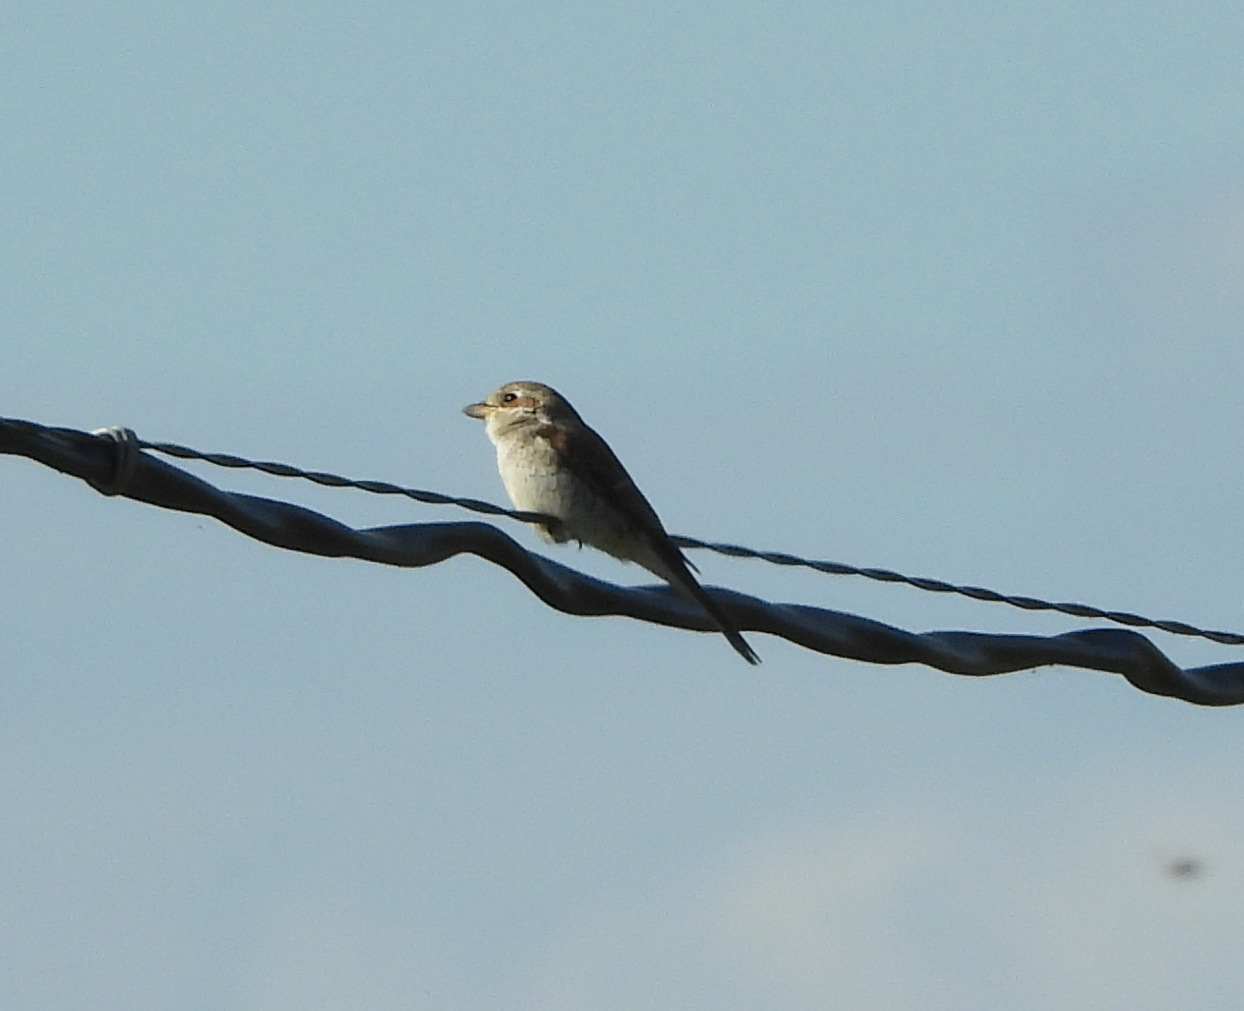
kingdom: Animalia
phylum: Chordata
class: Aves
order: Passeriformes
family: Laniidae
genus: Lanius
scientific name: Lanius collurio
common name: Red-backed shrike
